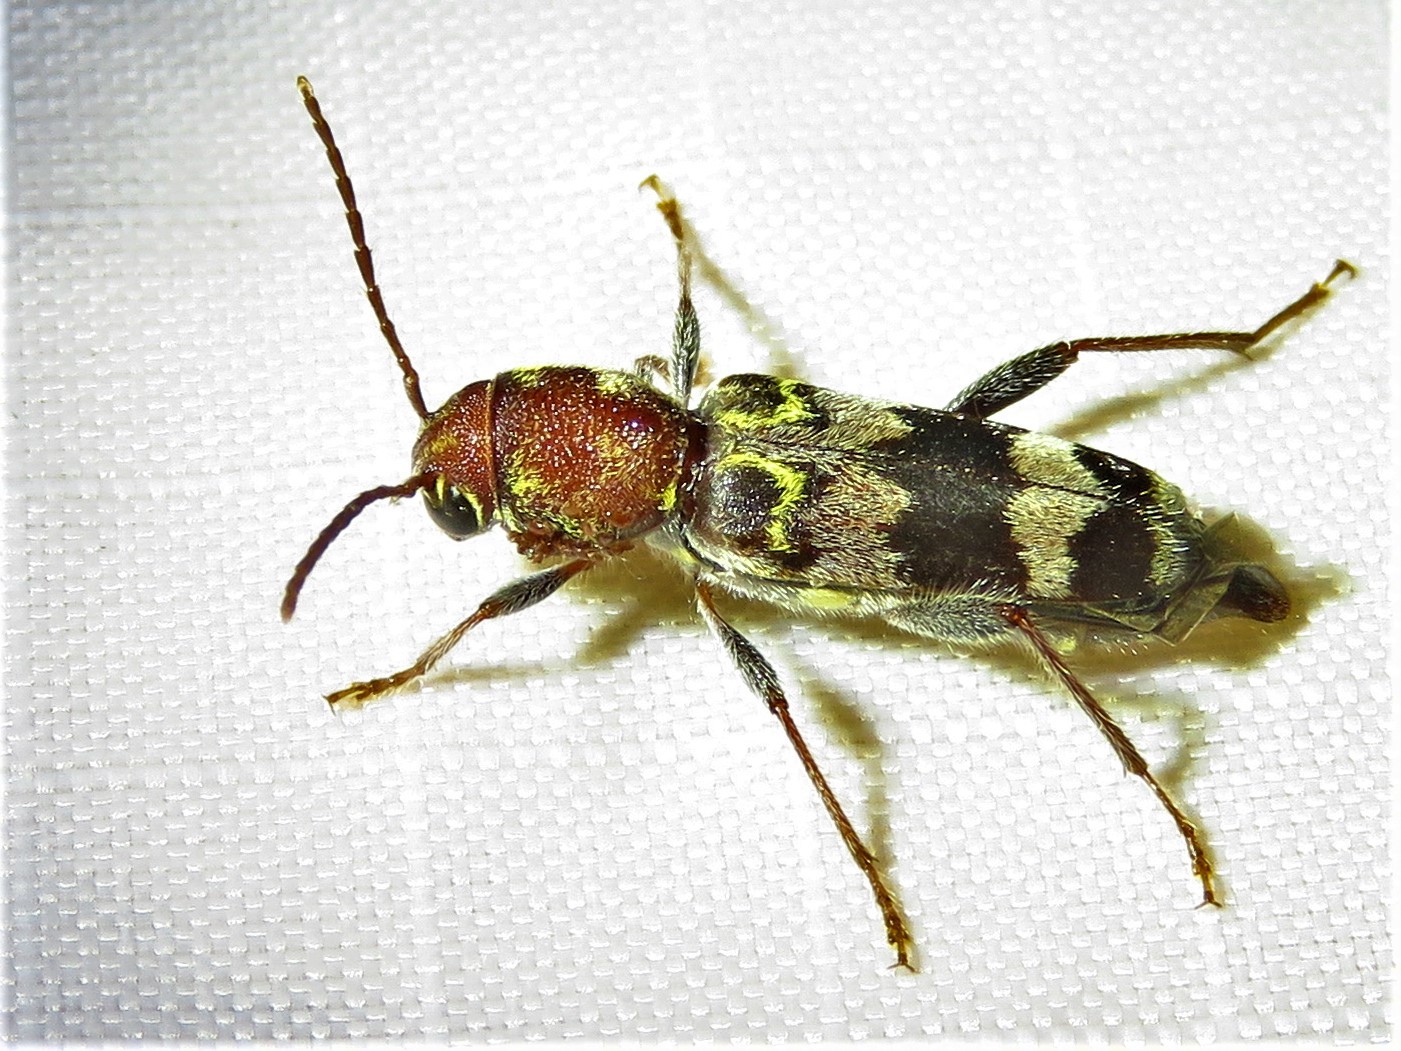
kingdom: Animalia
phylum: Arthropoda
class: Insecta
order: Coleoptera
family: Cerambycidae
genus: Xylotrechus
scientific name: Xylotrechus colonus
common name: Long-horned beetle
